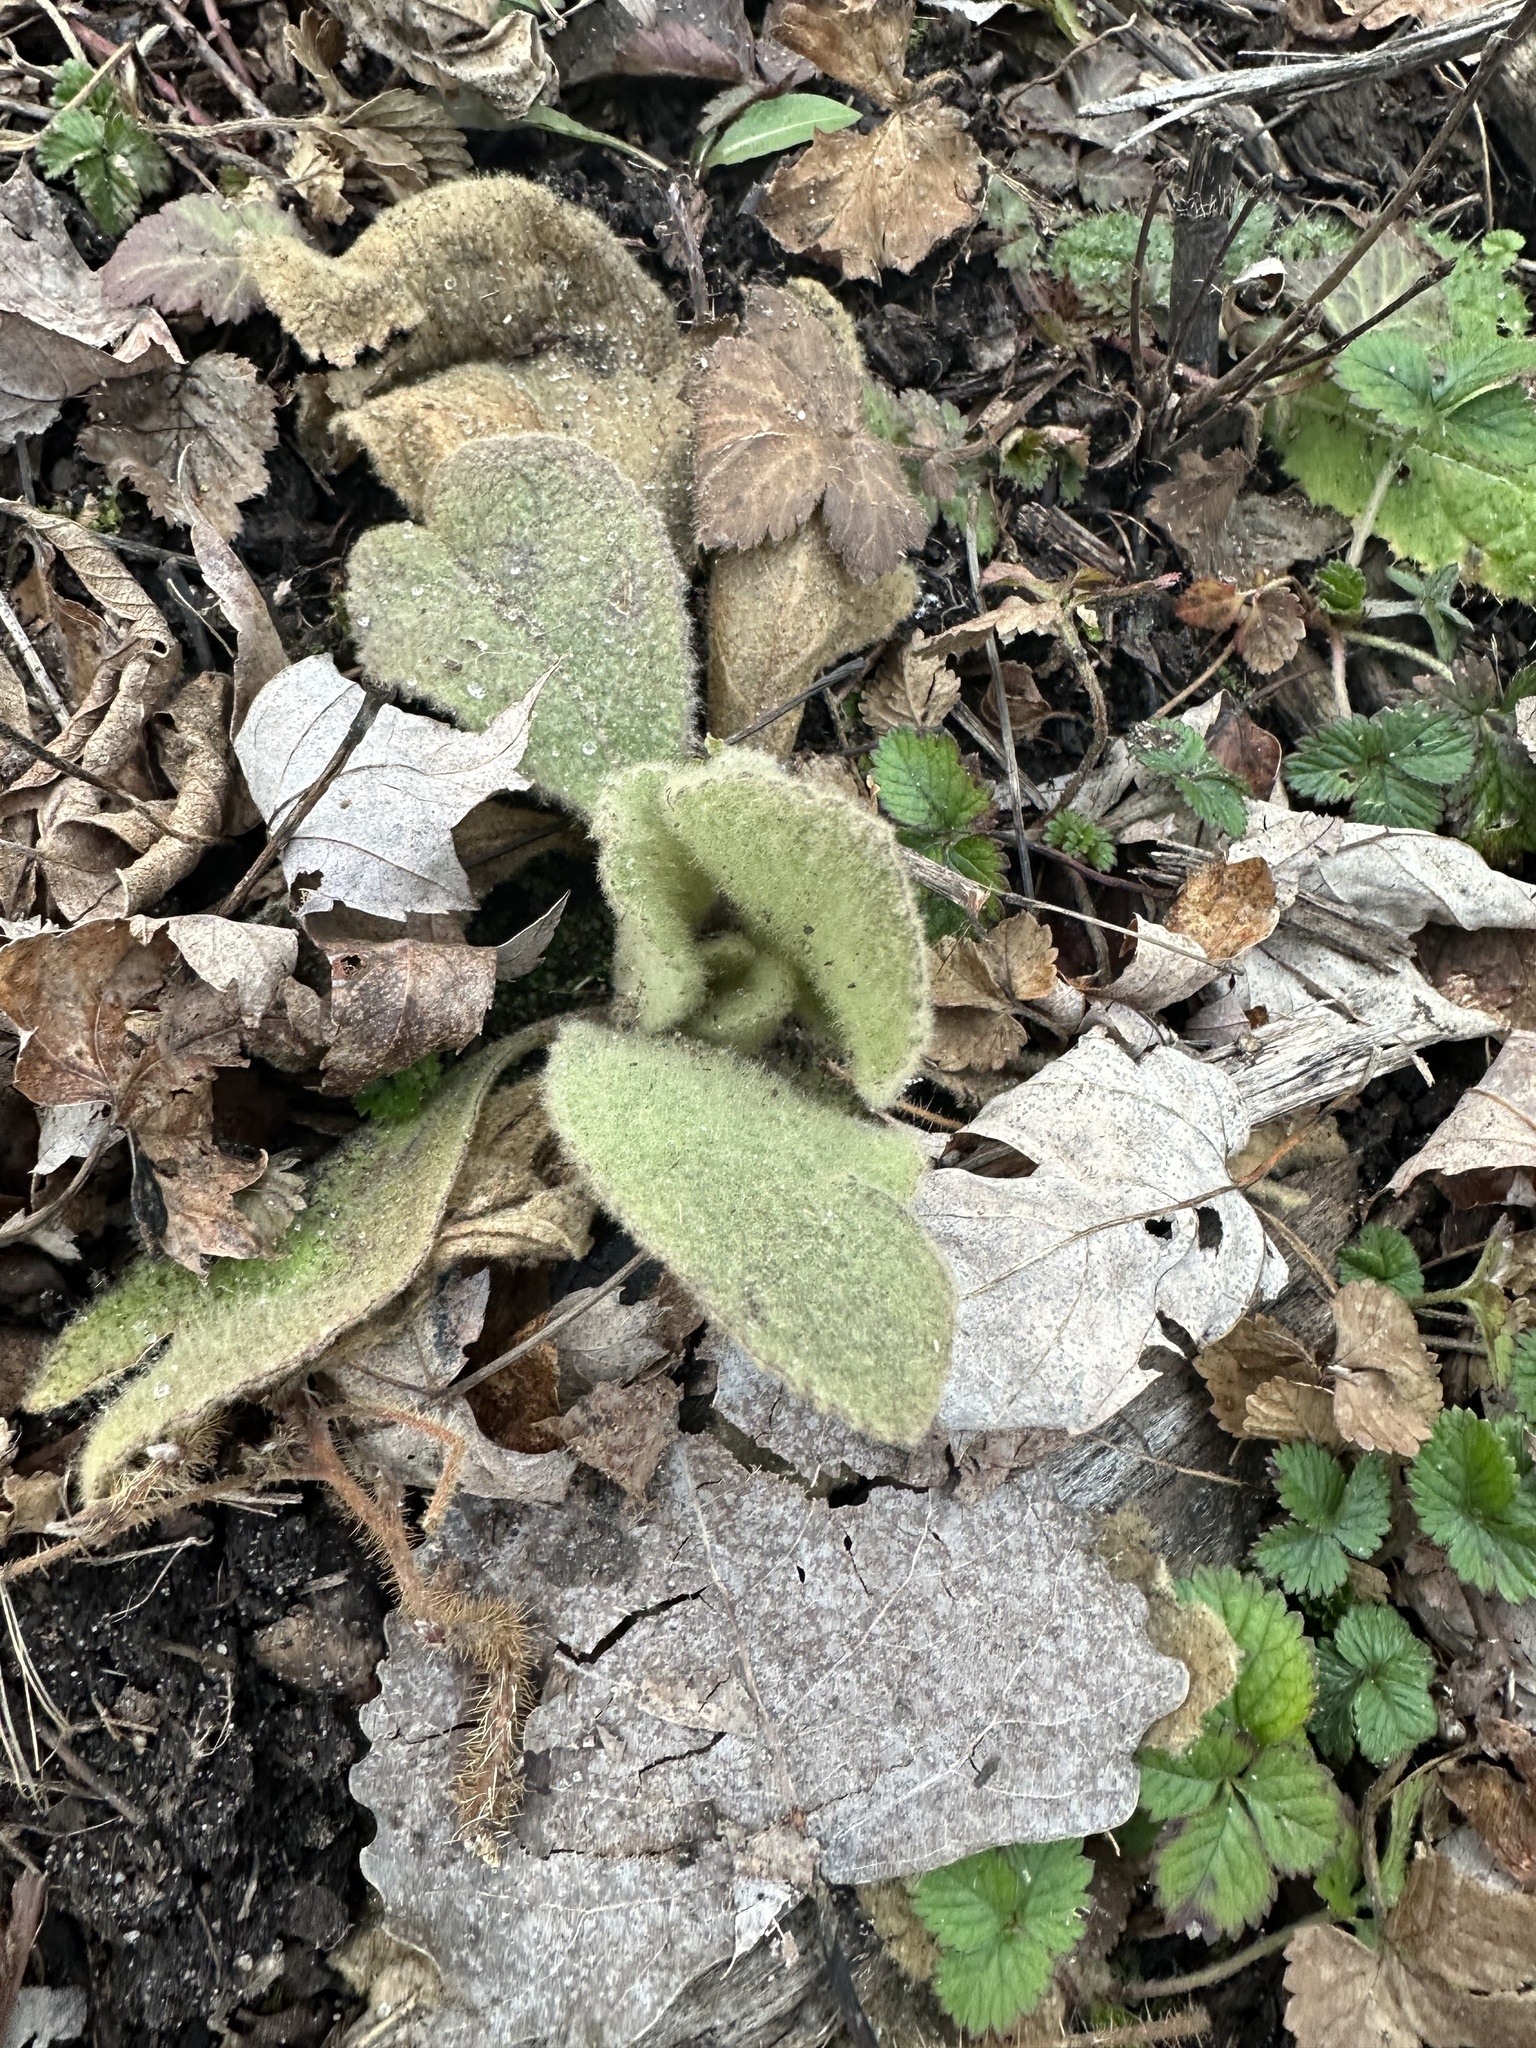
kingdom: Plantae
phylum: Tracheophyta
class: Magnoliopsida
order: Lamiales
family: Scrophulariaceae
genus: Verbascum
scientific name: Verbascum thapsus
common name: Common mullein
